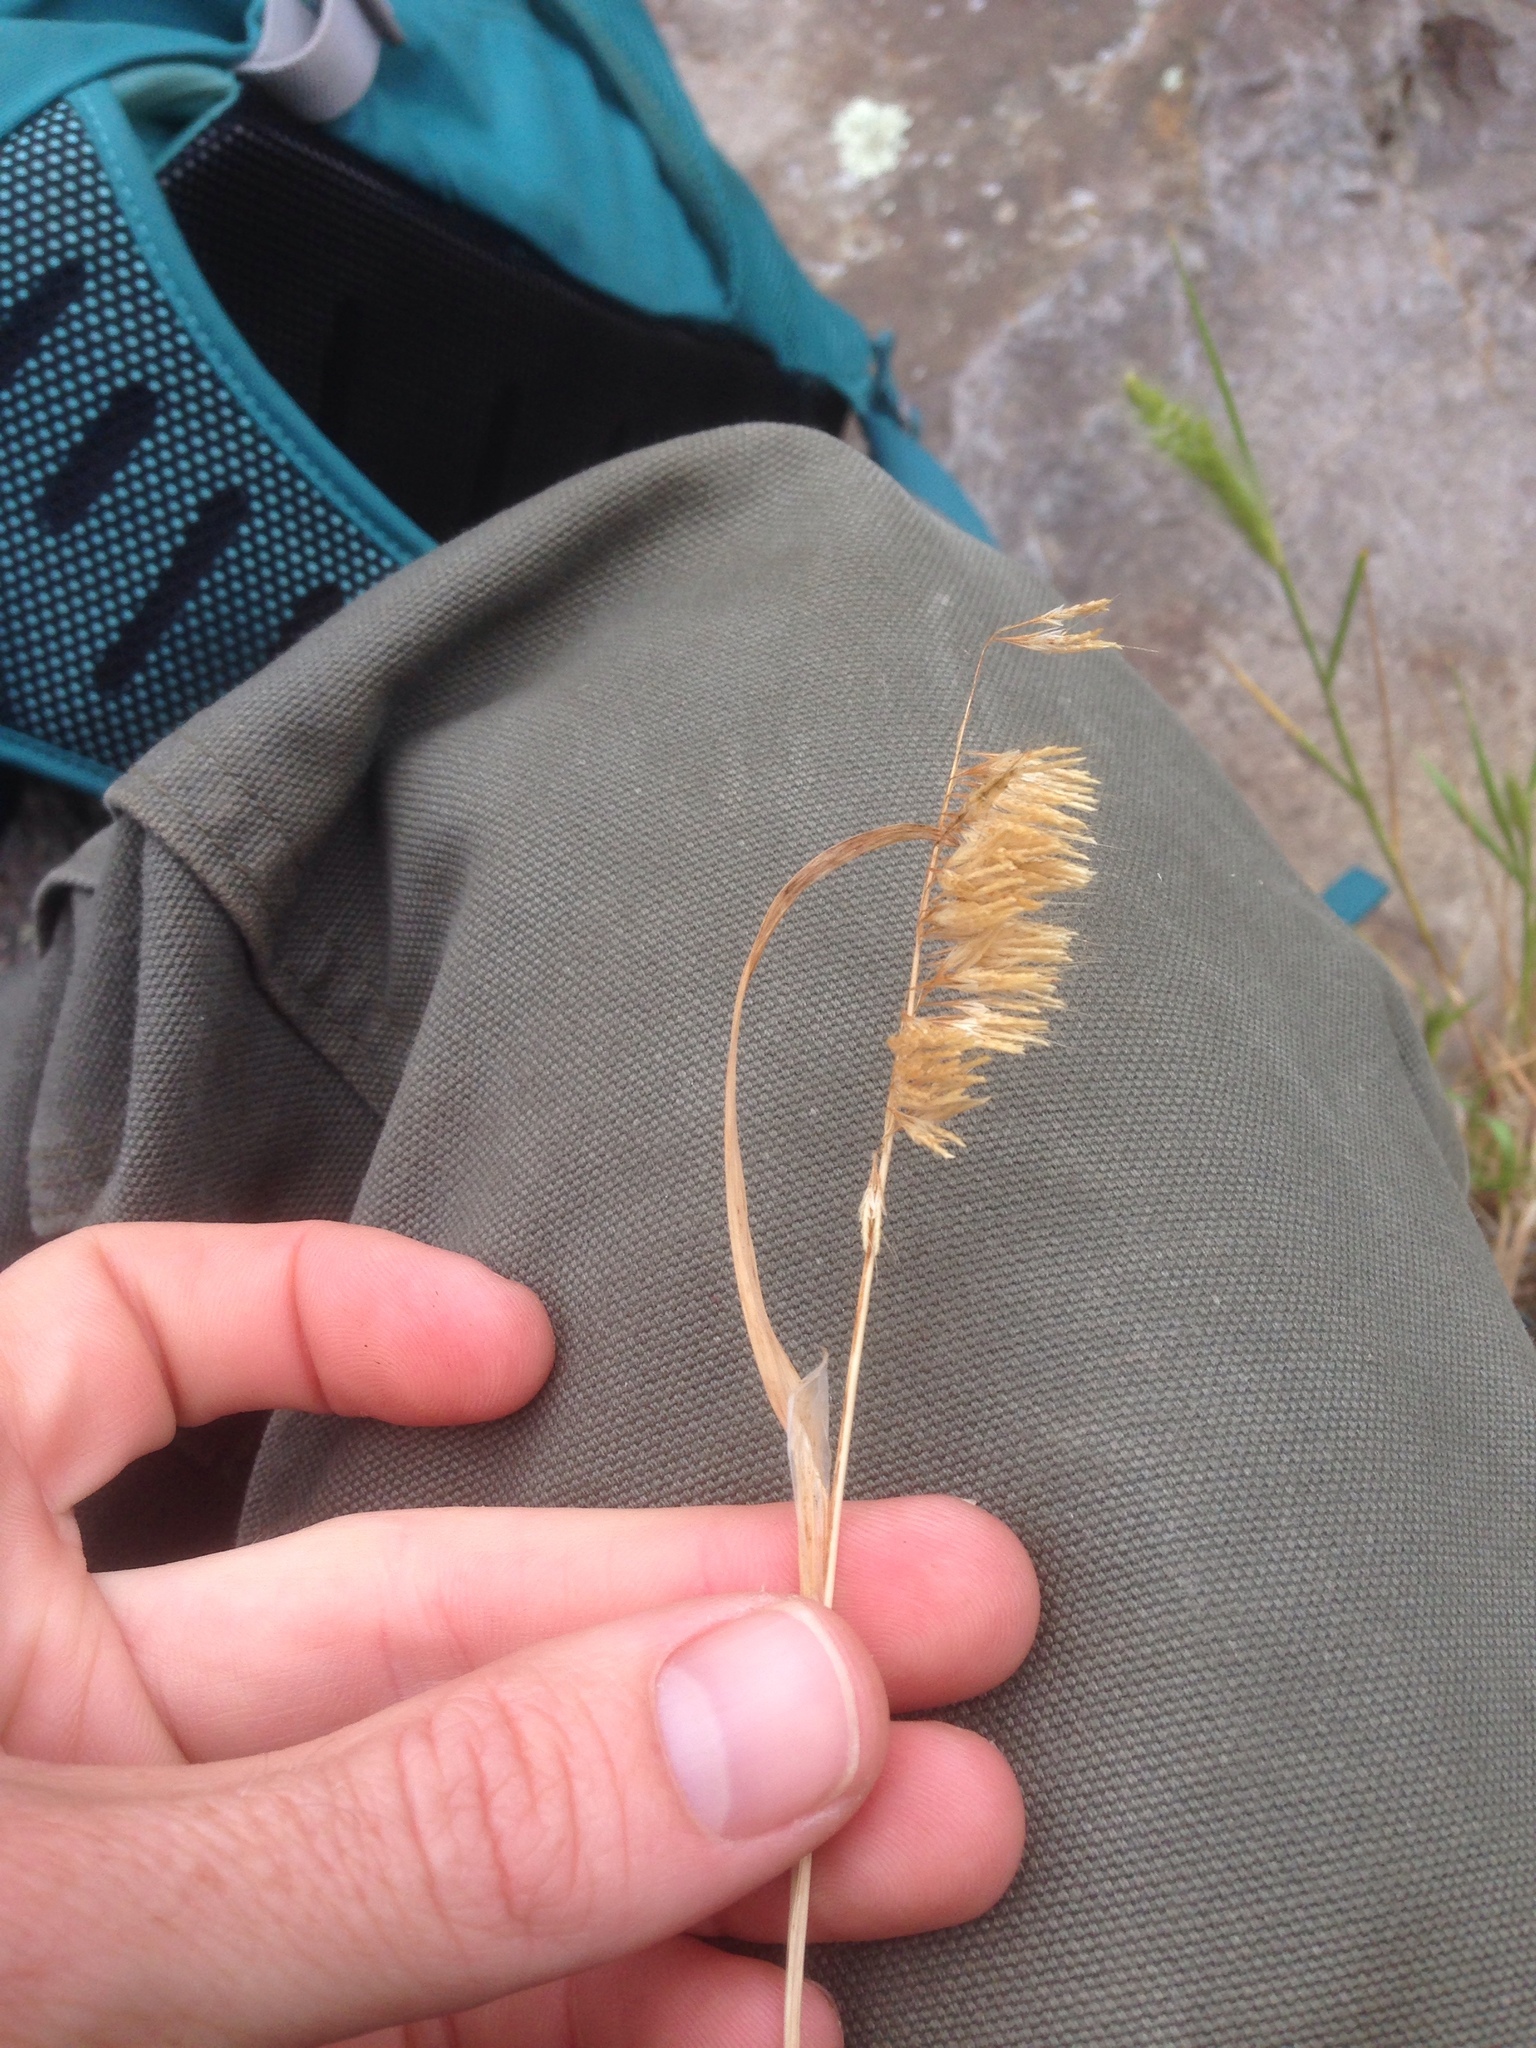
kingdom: Plantae
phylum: Tracheophyta
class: Liliopsida
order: Poales
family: Poaceae
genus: Lamarckia
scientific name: Lamarckia aurea
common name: Golden dog's-tail
